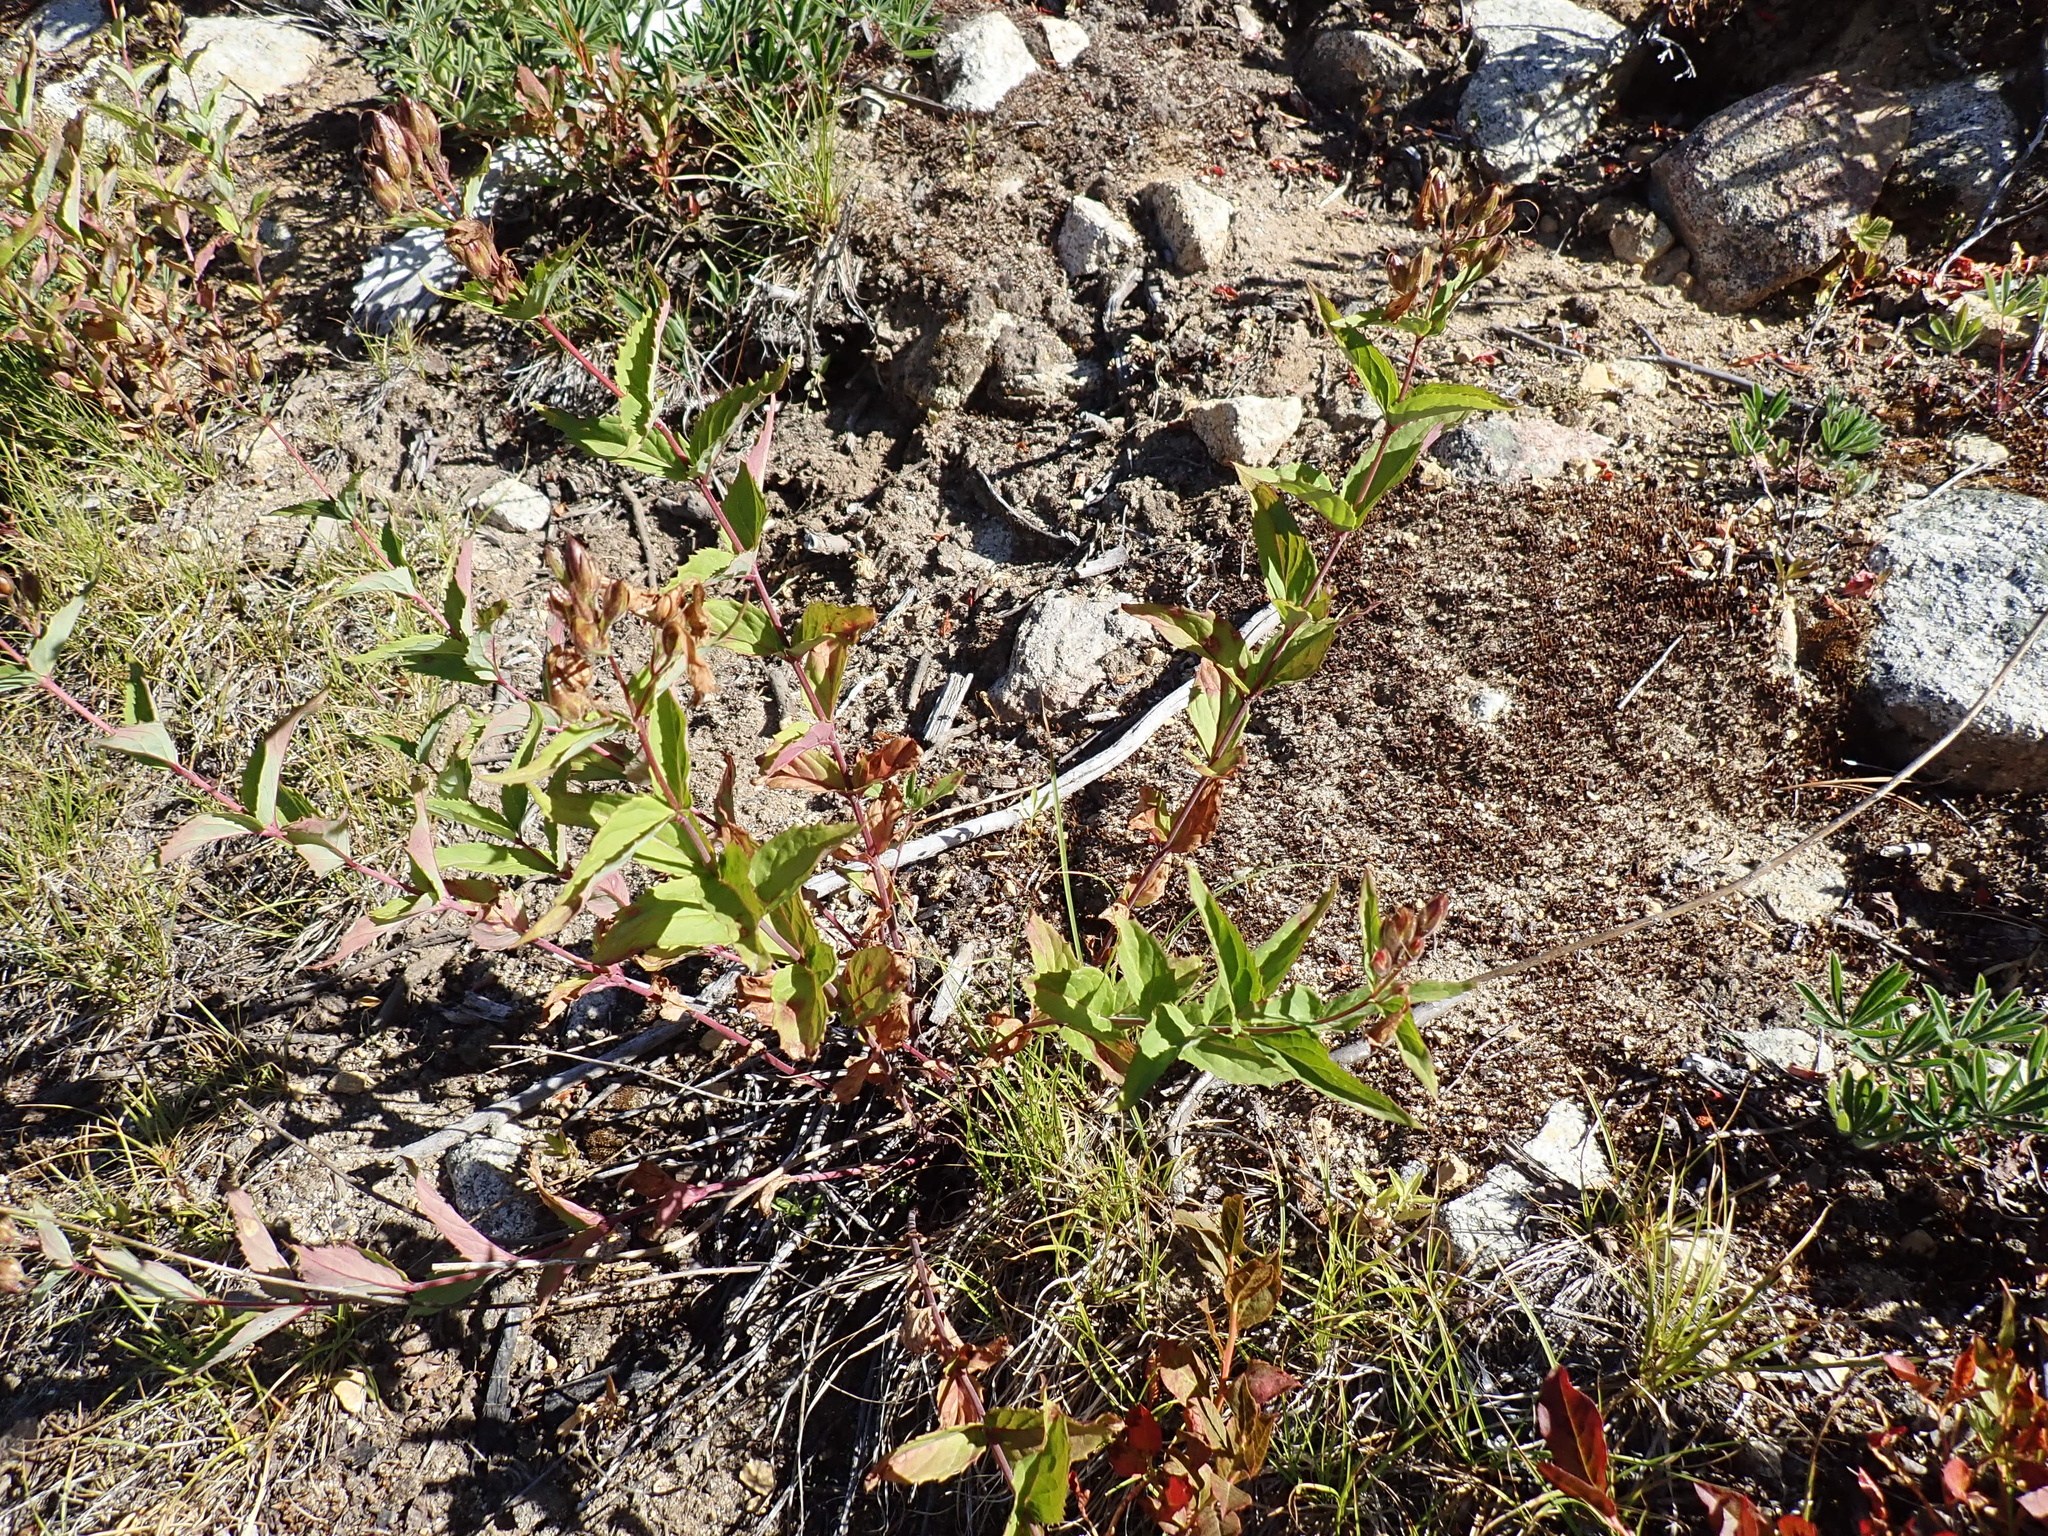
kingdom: Plantae
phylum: Tracheophyta
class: Magnoliopsida
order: Lamiales
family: Plantaginaceae
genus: Nothochelone
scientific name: Nothochelone nemorosa
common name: Woodland beardtongue
